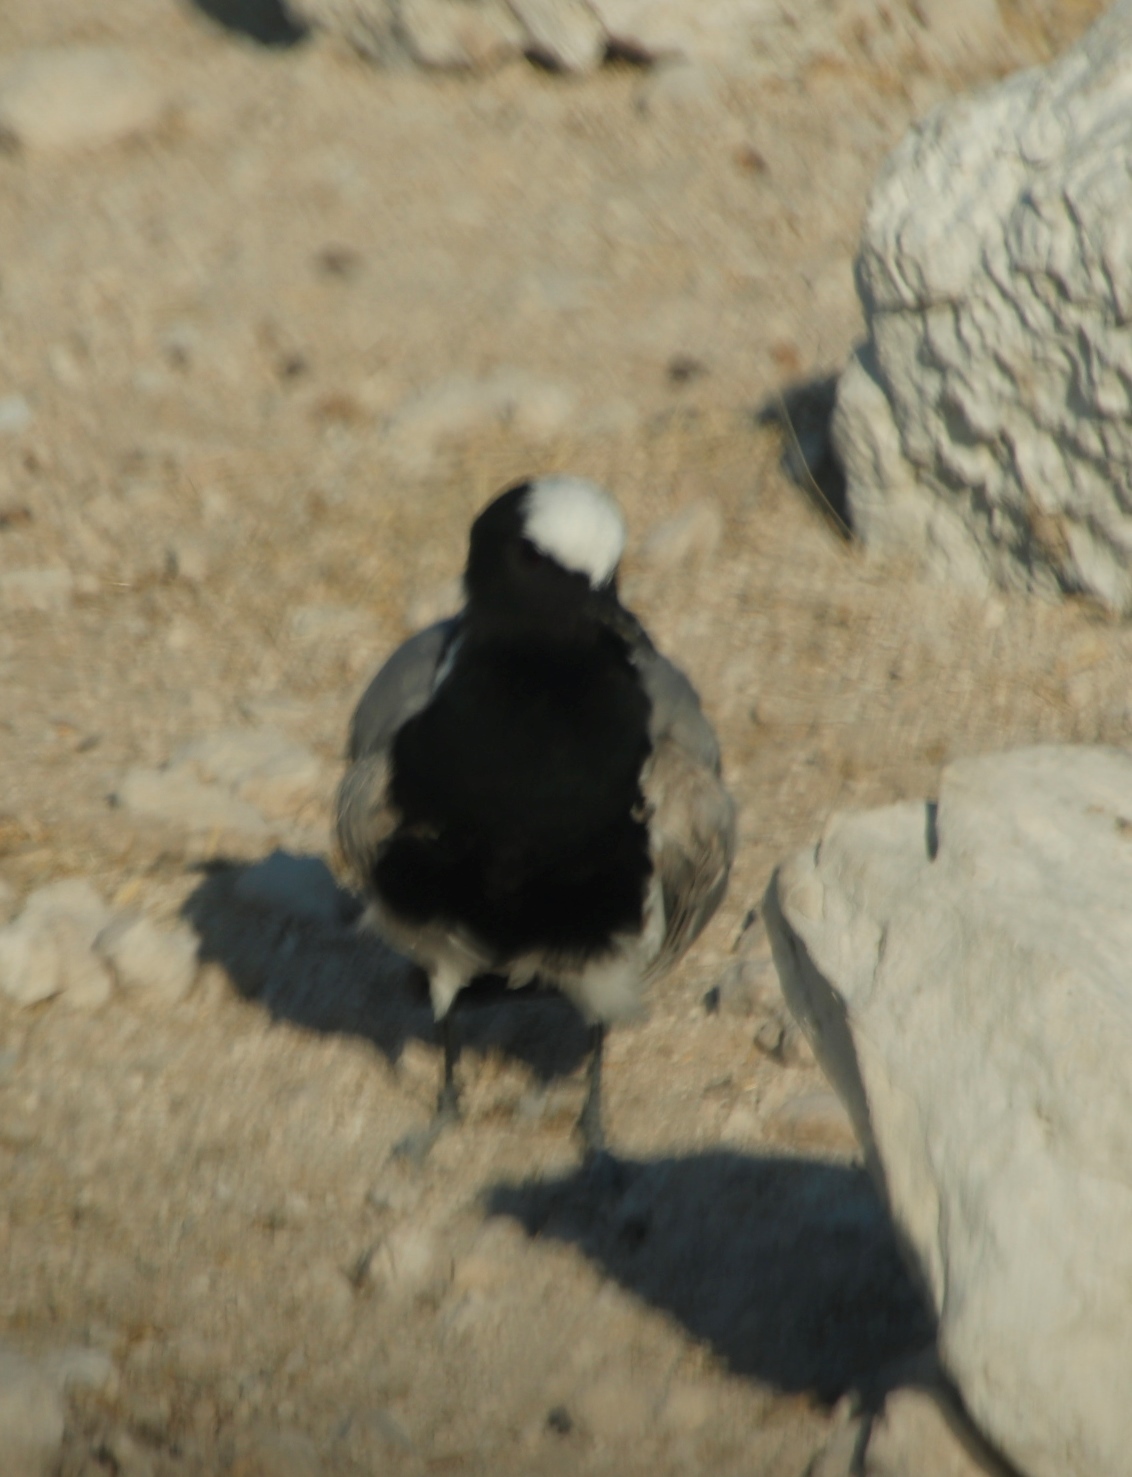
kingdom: Animalia
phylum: Chordata
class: Aves
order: Charadriiformes
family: Charadriidae
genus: Vanellus
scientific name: Vanellus armatus
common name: Blacksmith lapwing
